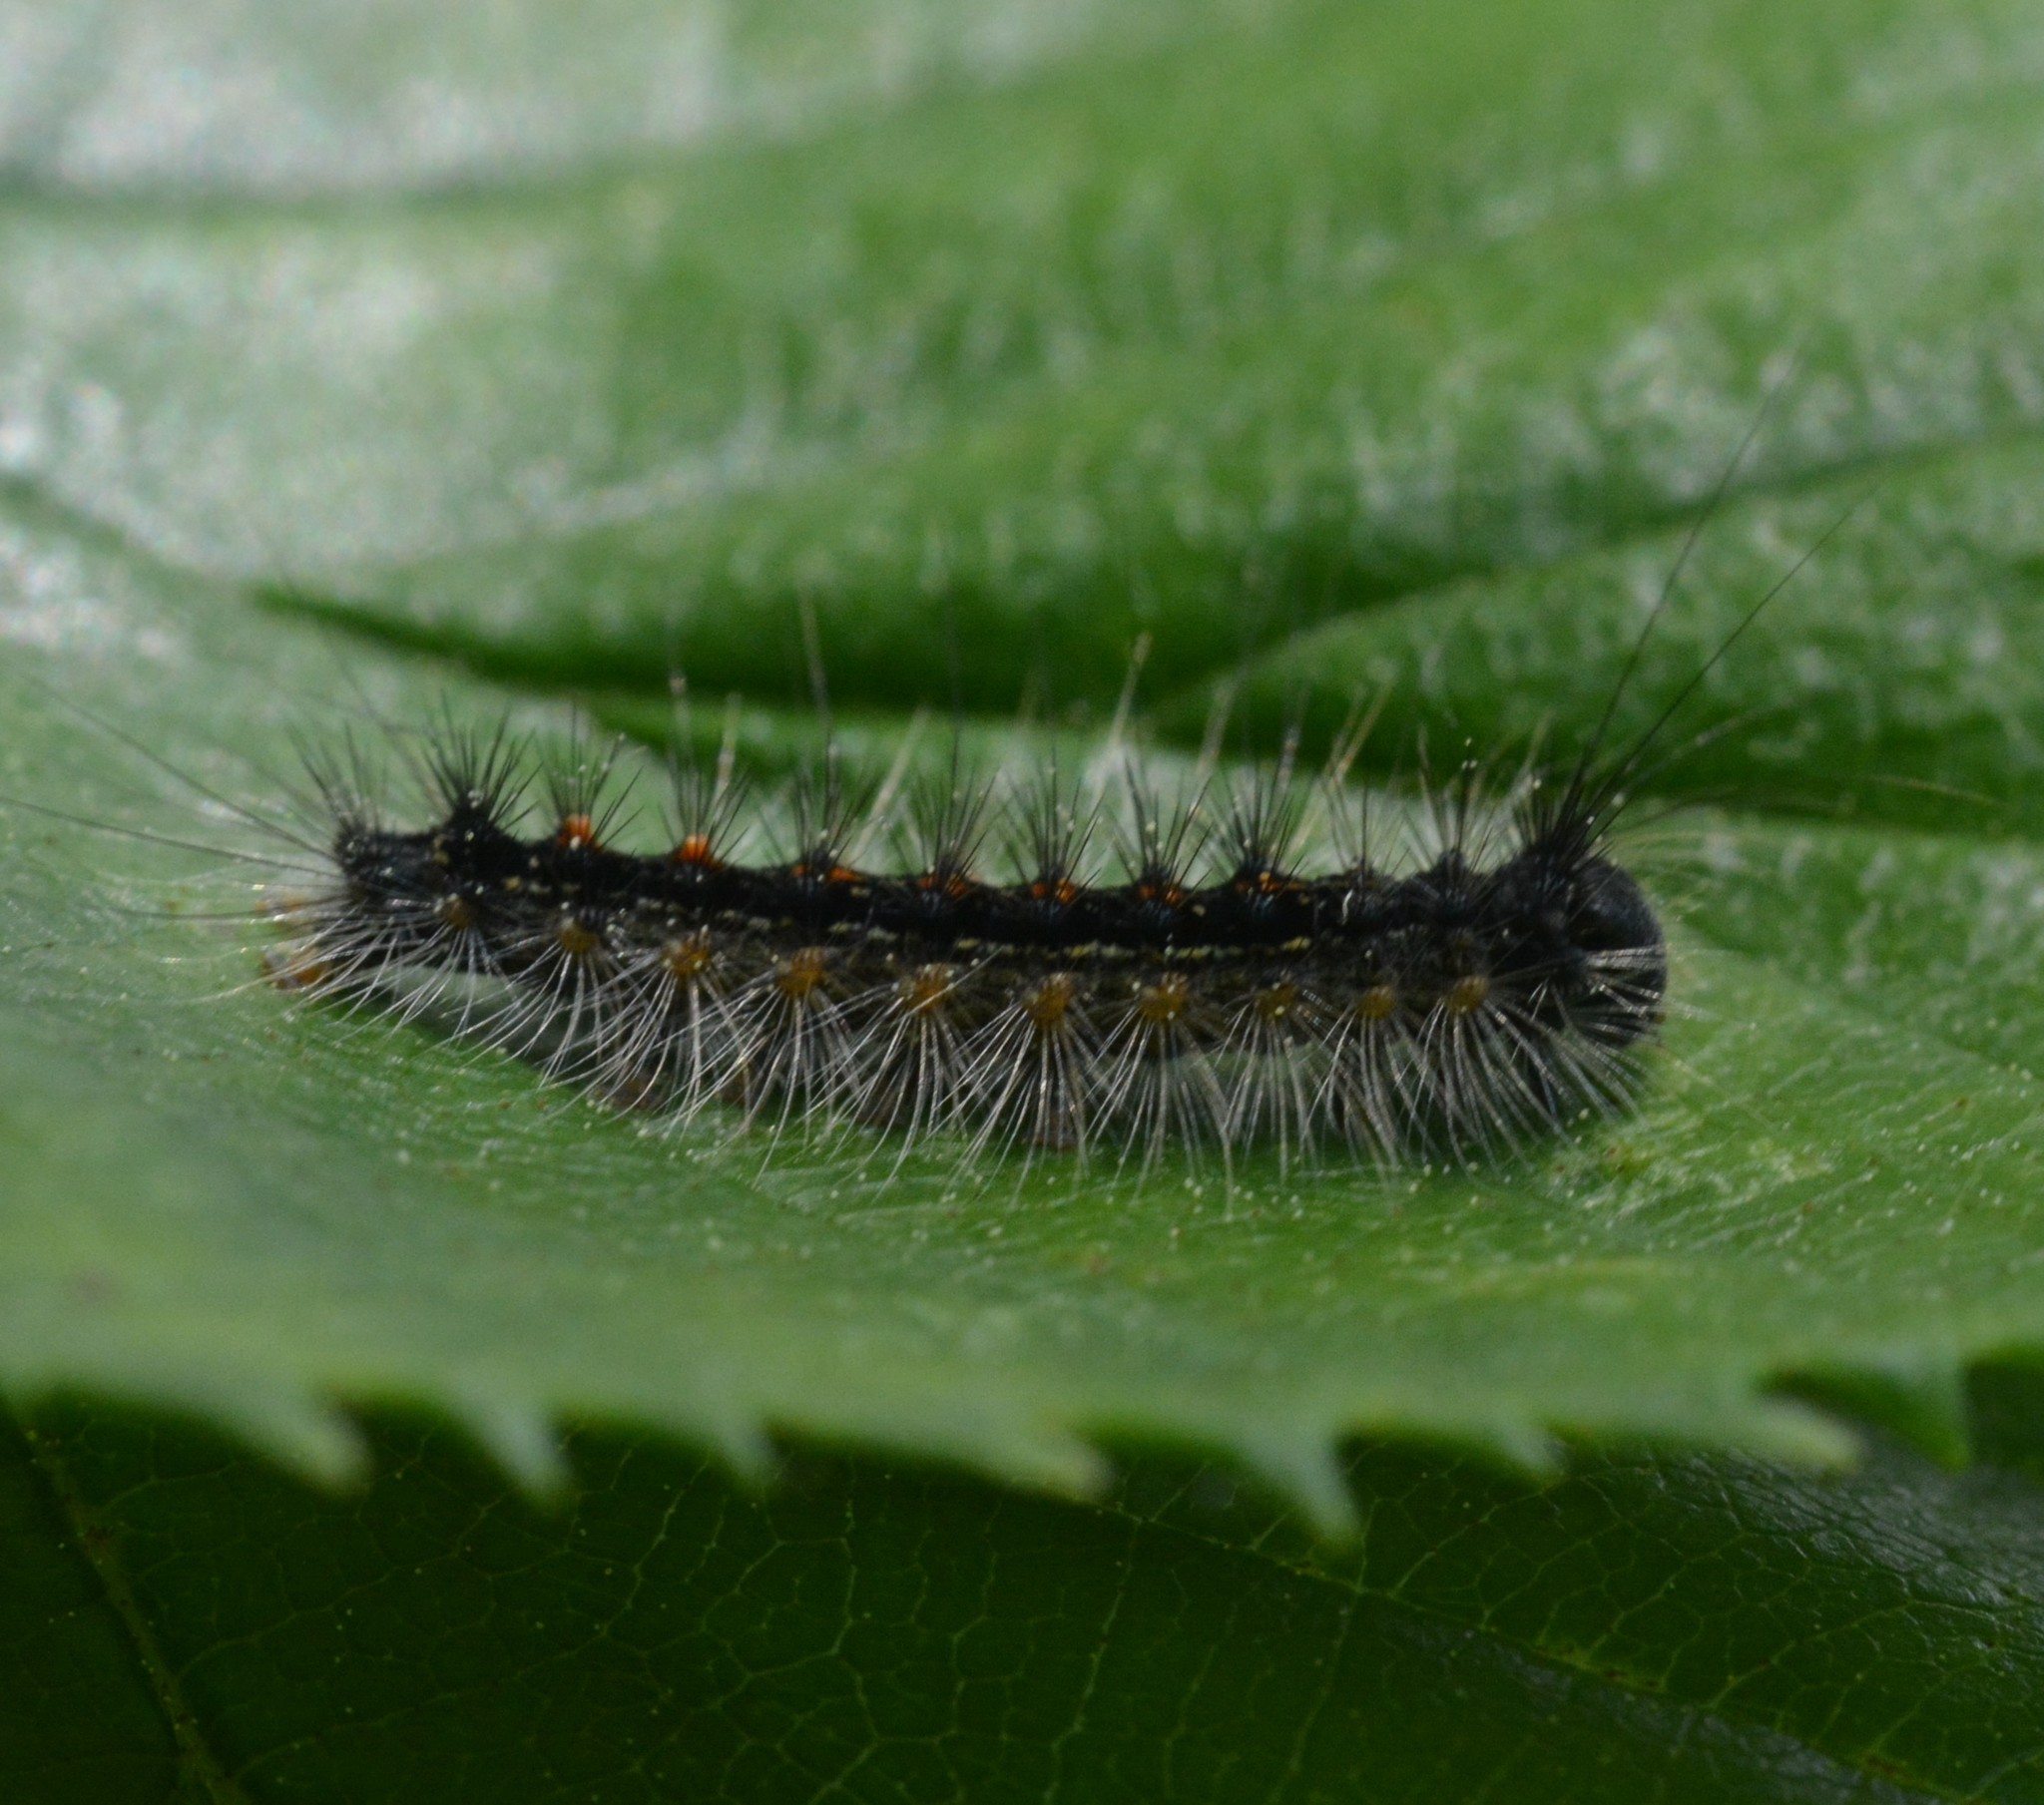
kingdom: Animalia
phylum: Arthropoda
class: Insecta
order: Lepidoptera
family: Erebidae
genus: Lymantria
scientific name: Lymantria dispar
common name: Gypsy moth
